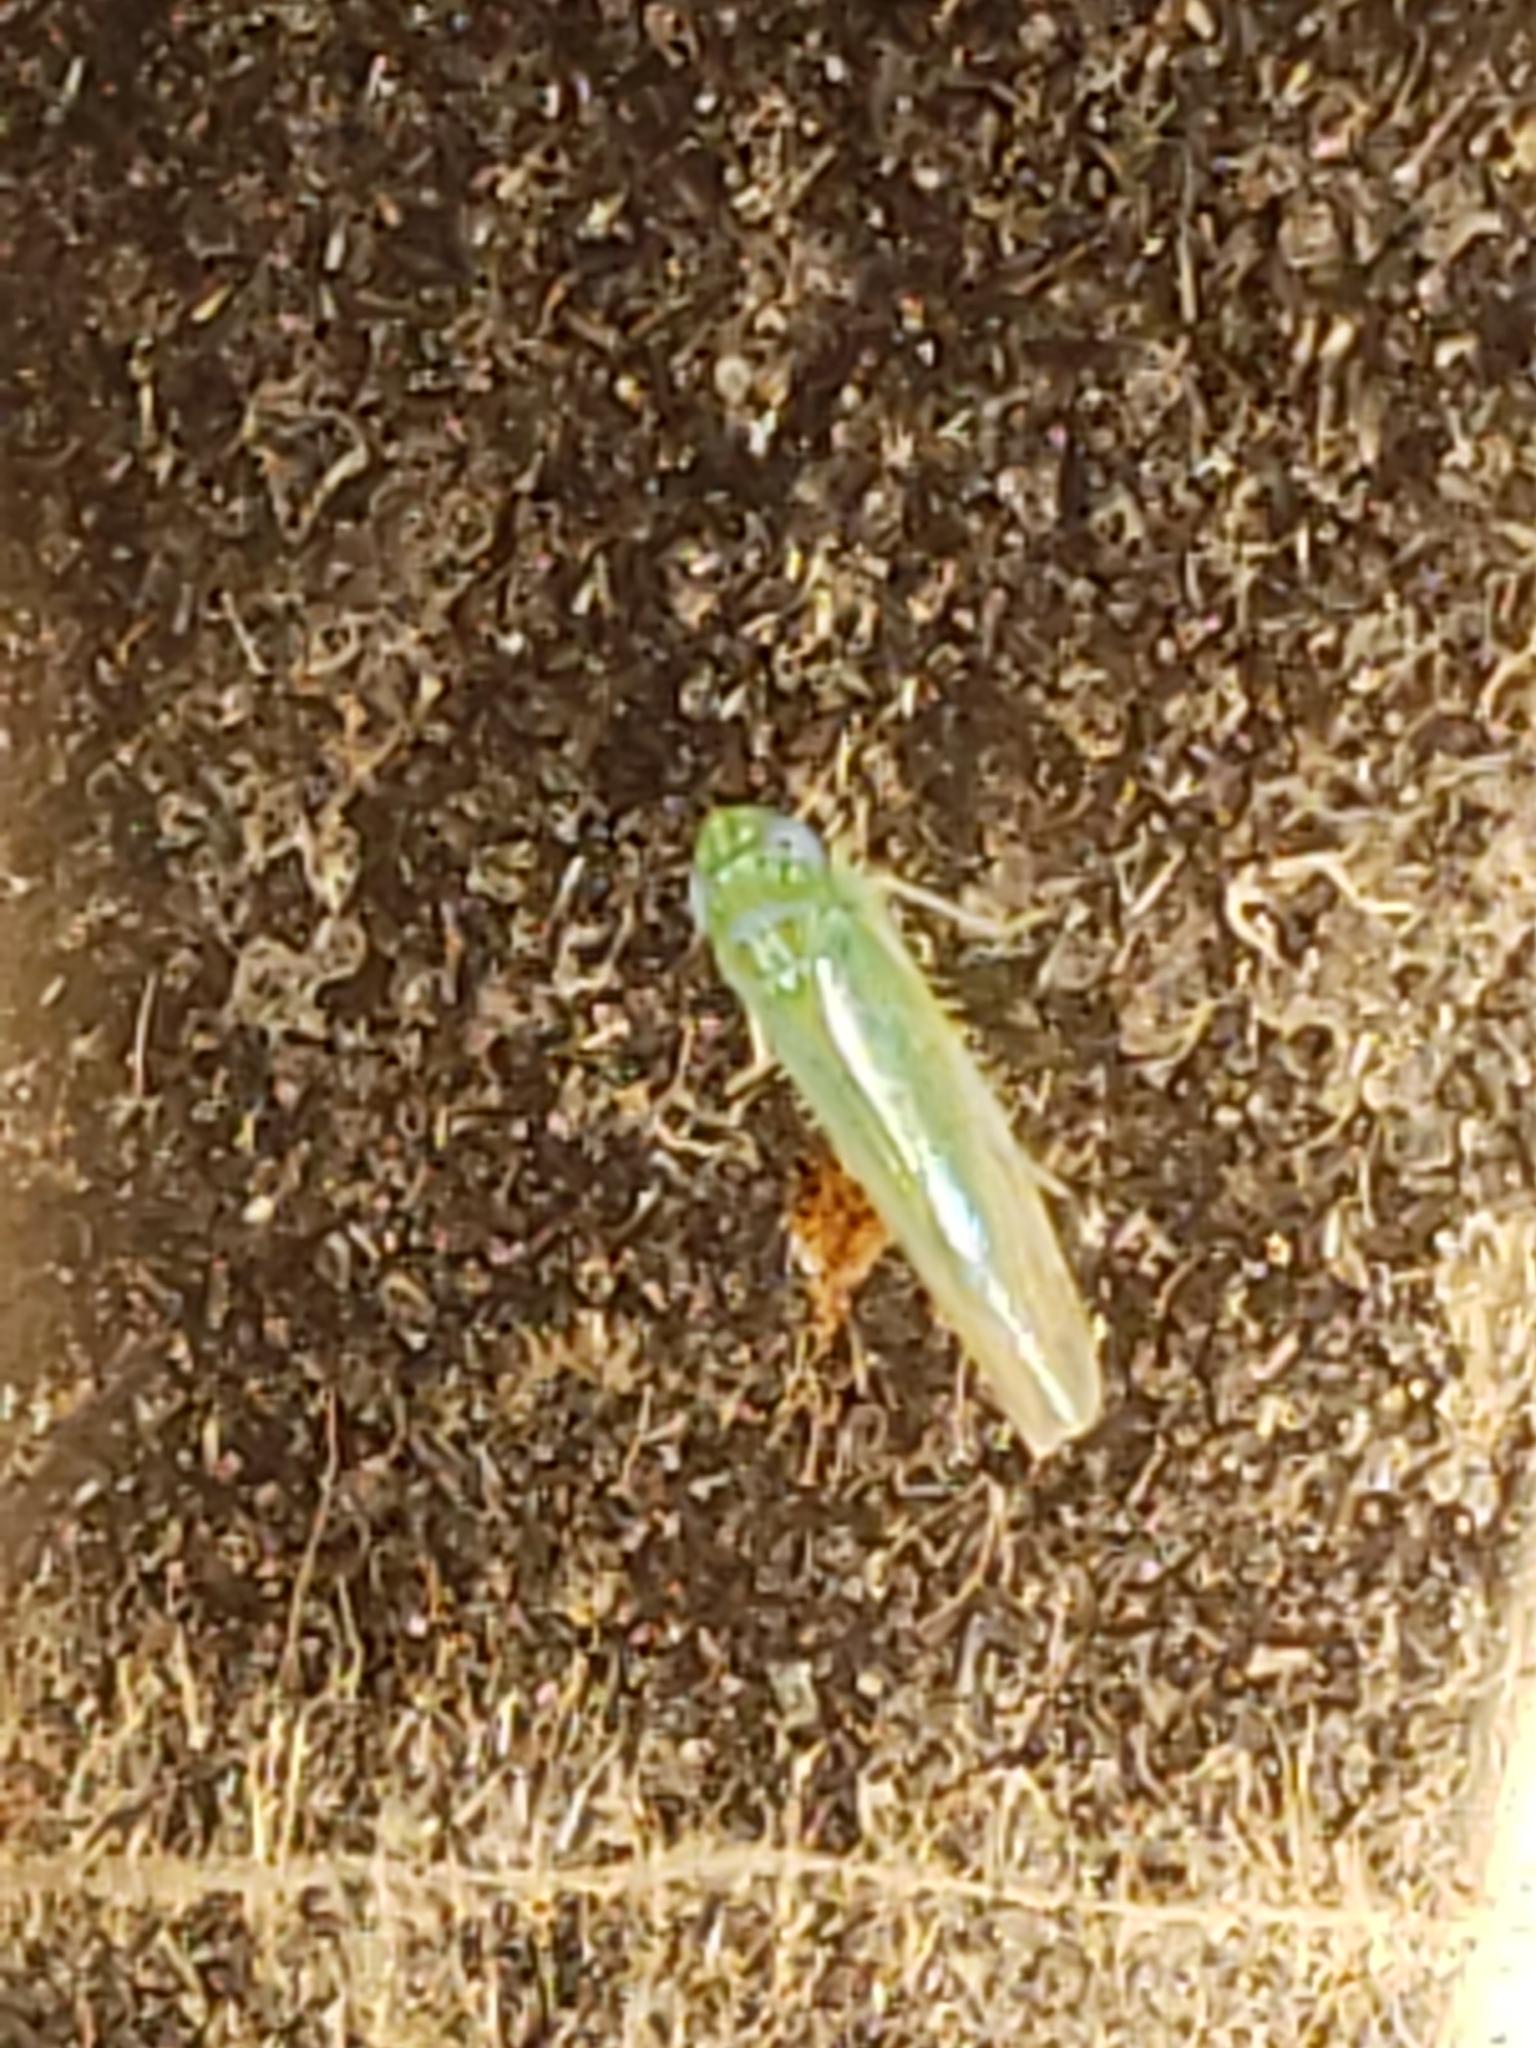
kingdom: Animalia
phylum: Arthropoda
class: Insecta
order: Hemiptera
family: Cicadellidae
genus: Empoasca
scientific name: Empoasca fabae
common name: Potato leafhopper
